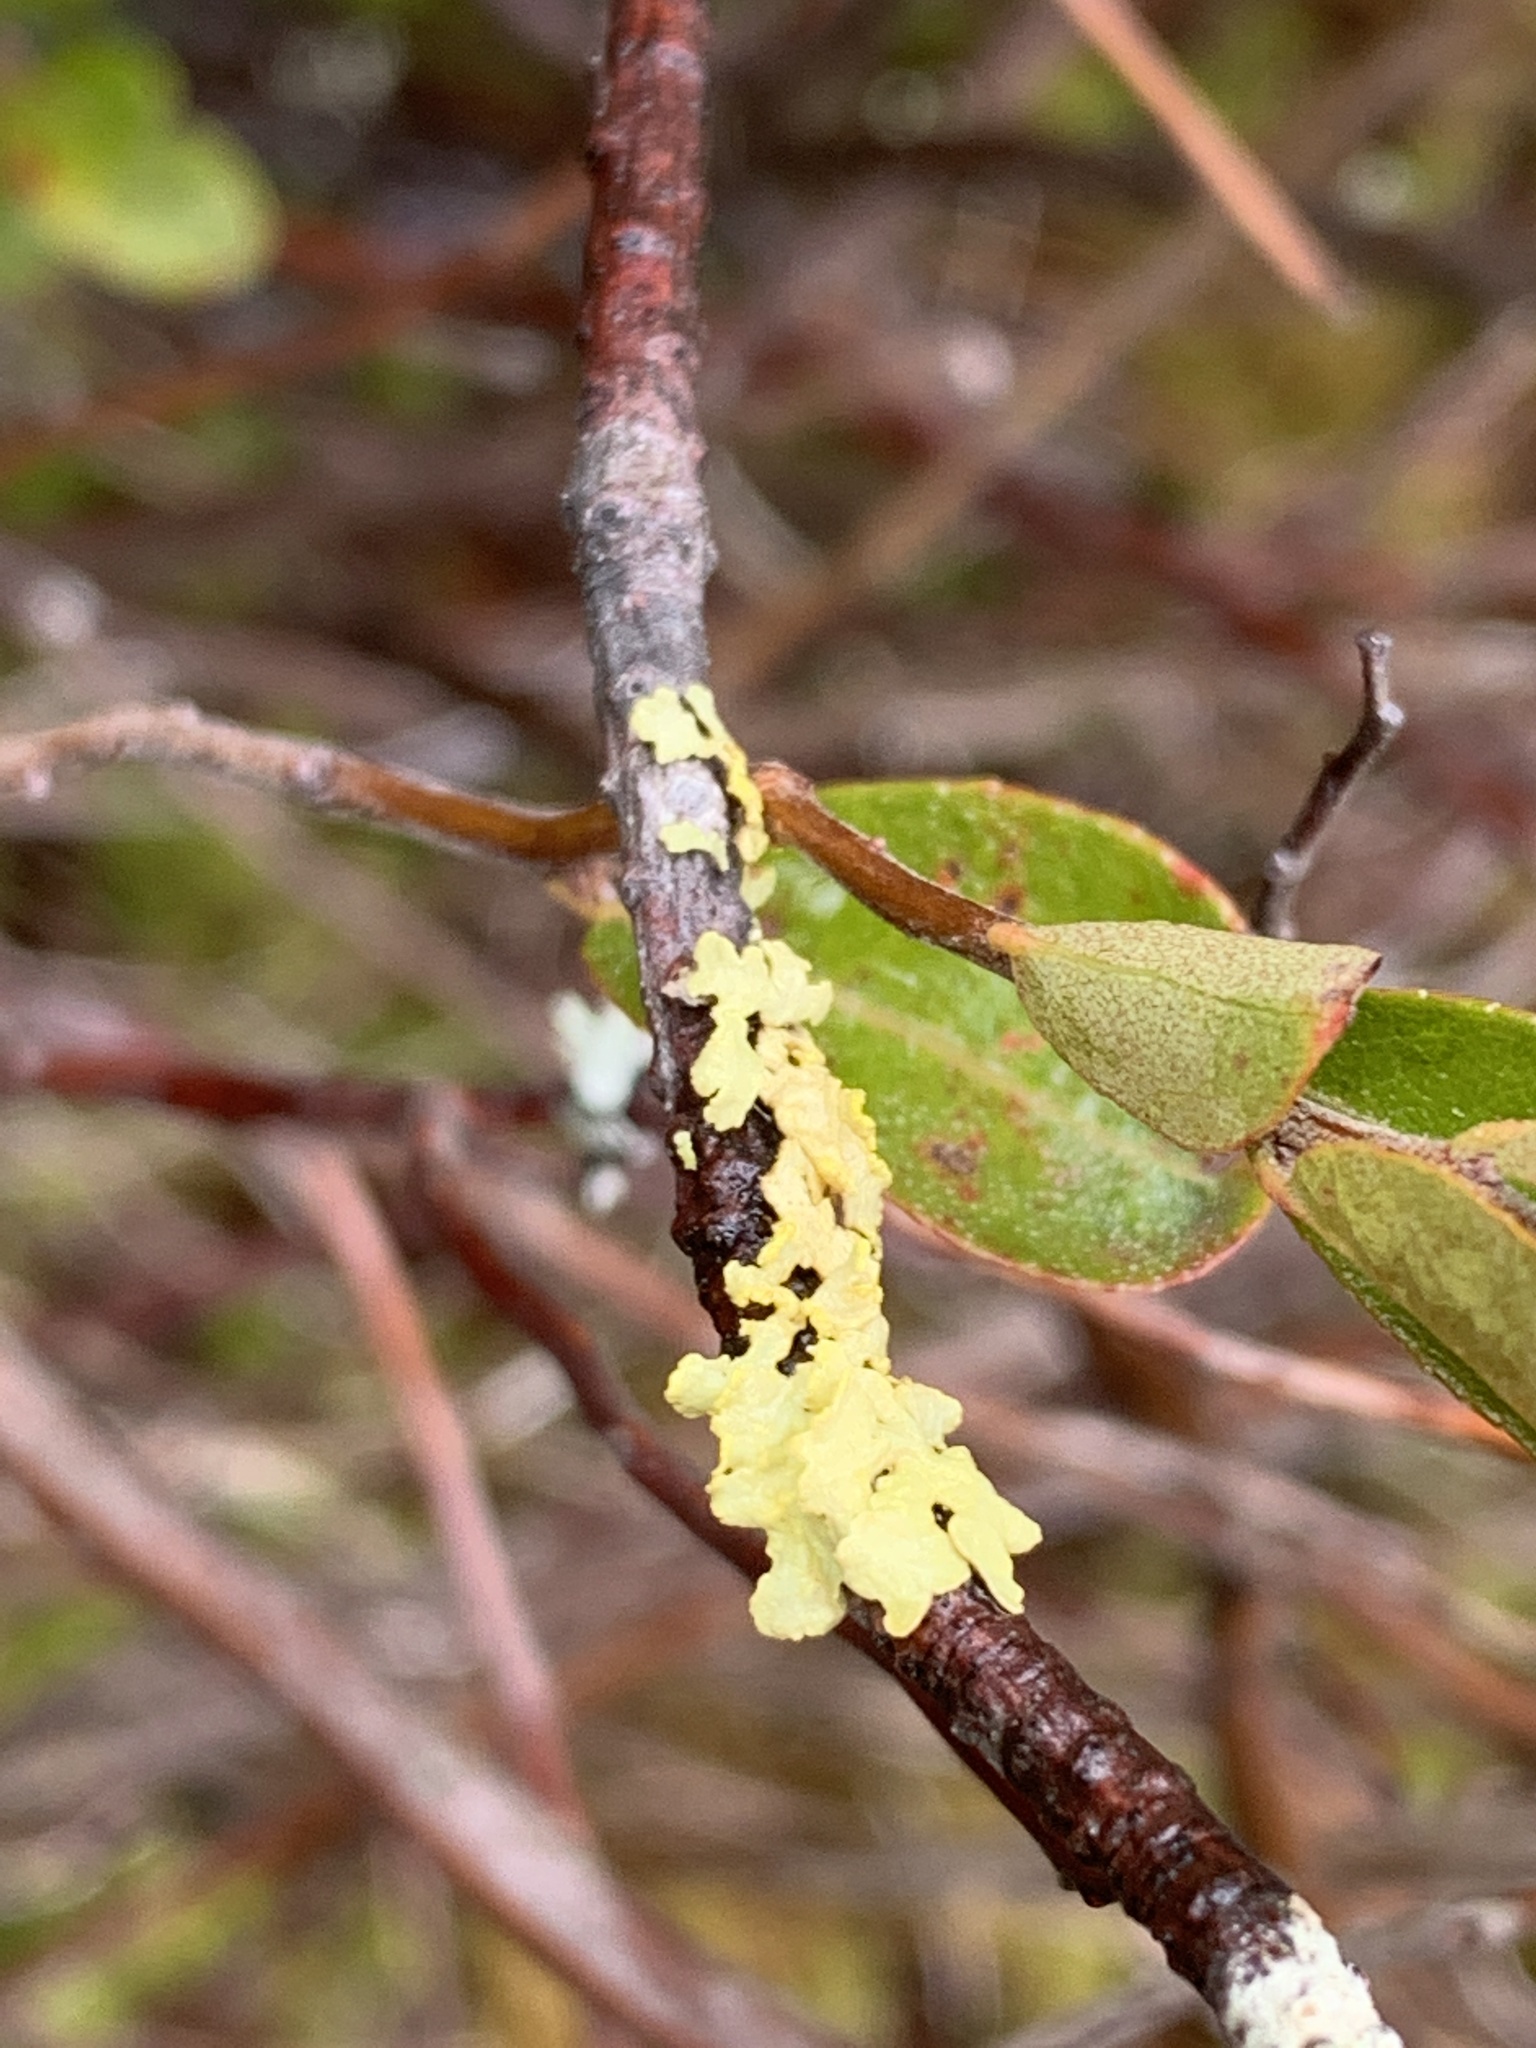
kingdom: Fungi
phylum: Ascomycota
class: Lecanoromycetes
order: Lecanorales
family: Parmeliaceae
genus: Vulpicida
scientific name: Vulpicida pinastri
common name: Powdered sunshine lichen
